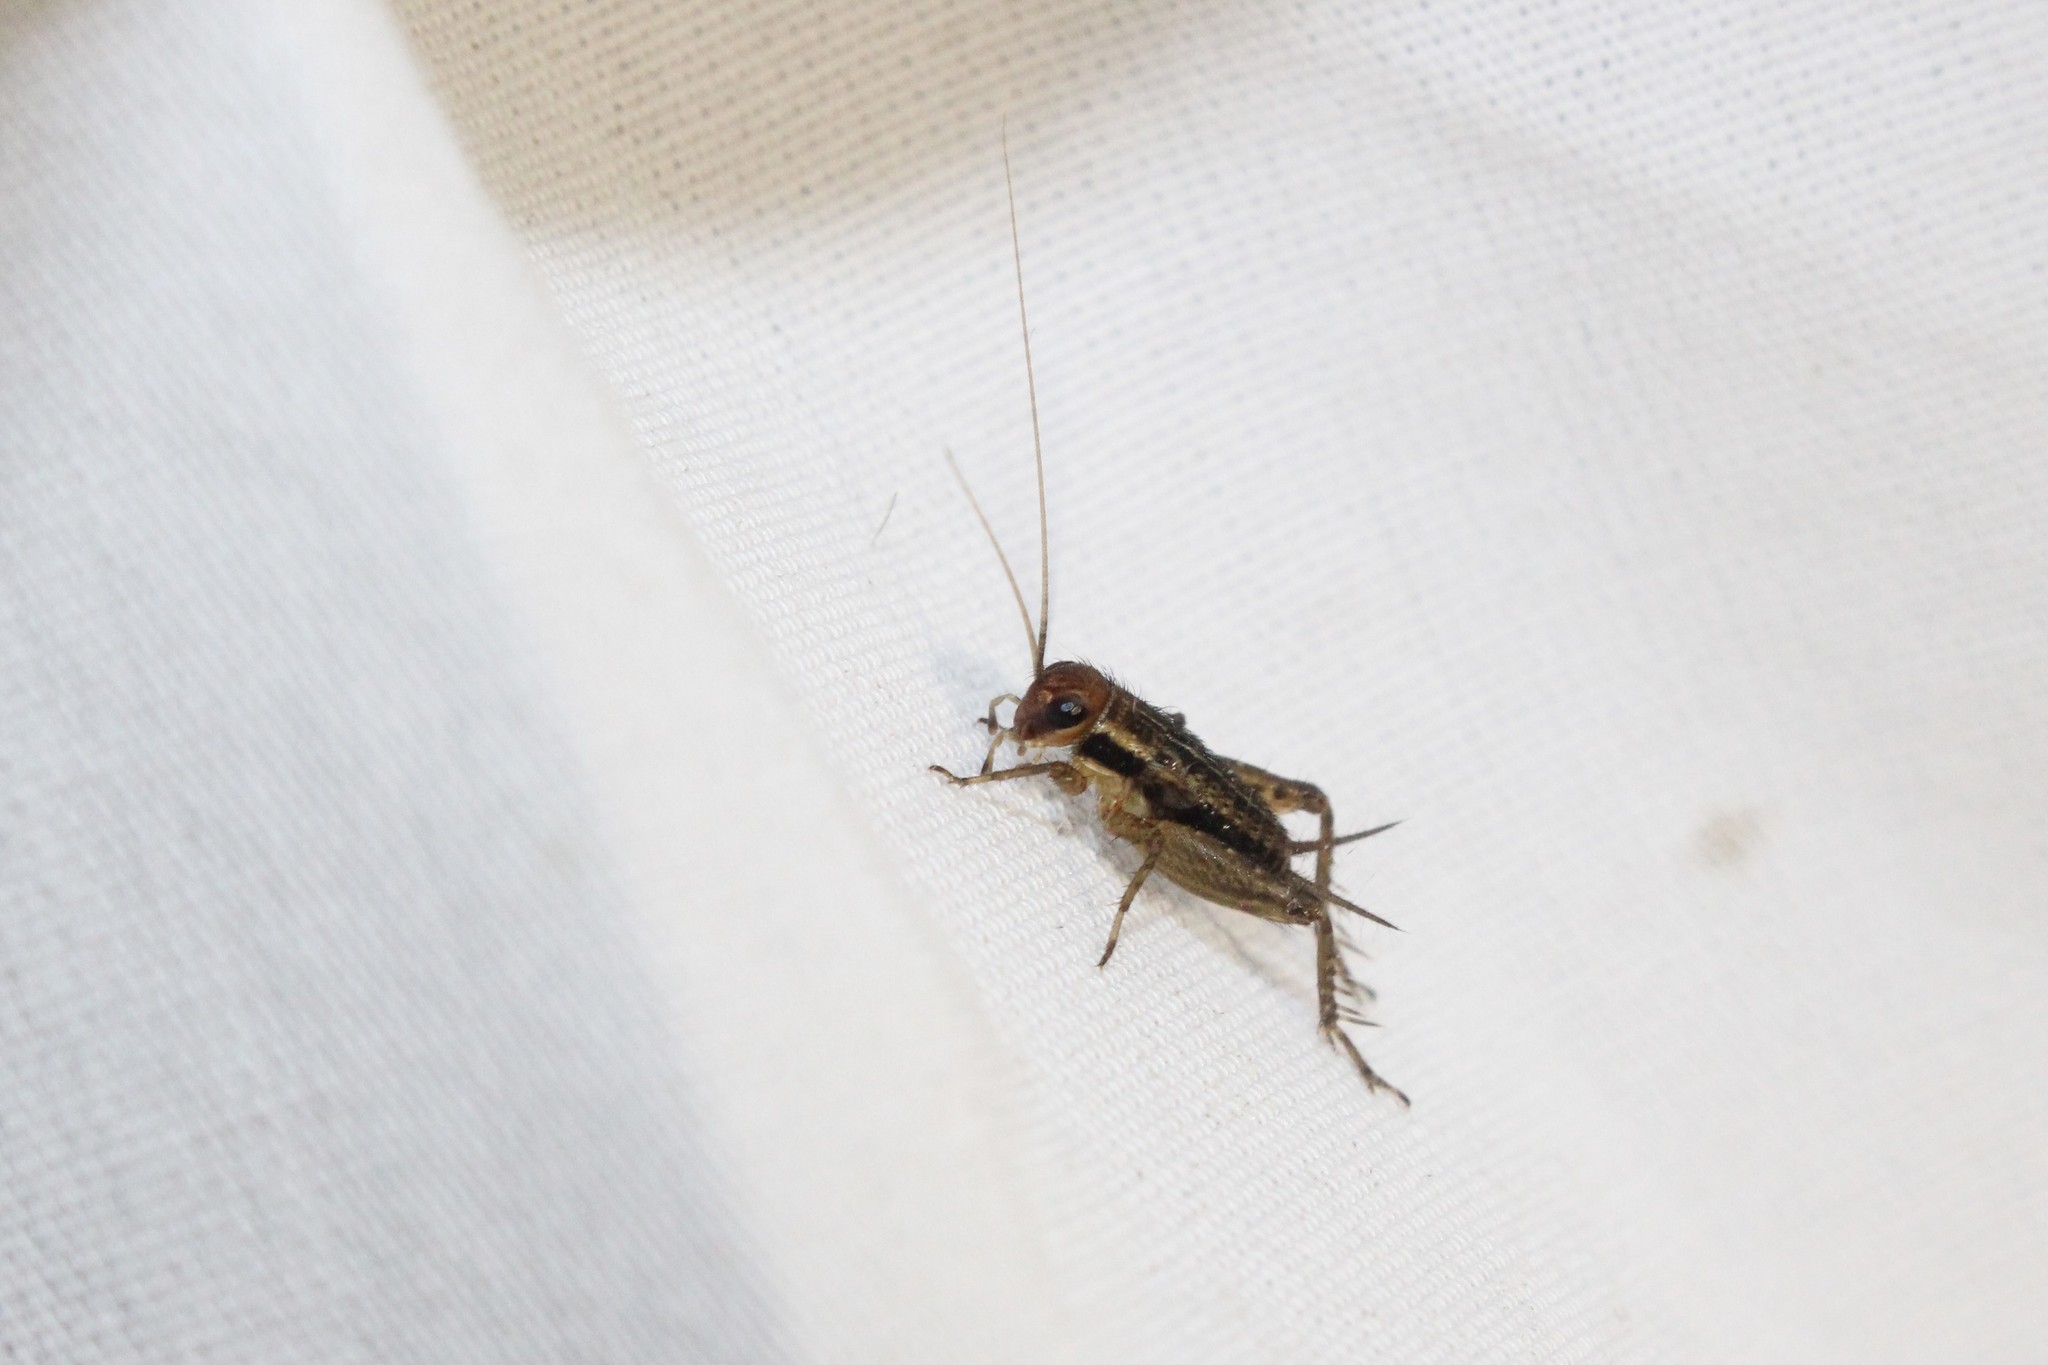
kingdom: Animalia
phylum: Arthropoda
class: Insecta
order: Orthoptera
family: Trigonidiidae
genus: Allonemobius
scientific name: Allonemobius fasciatus
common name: Striped ground cricket
